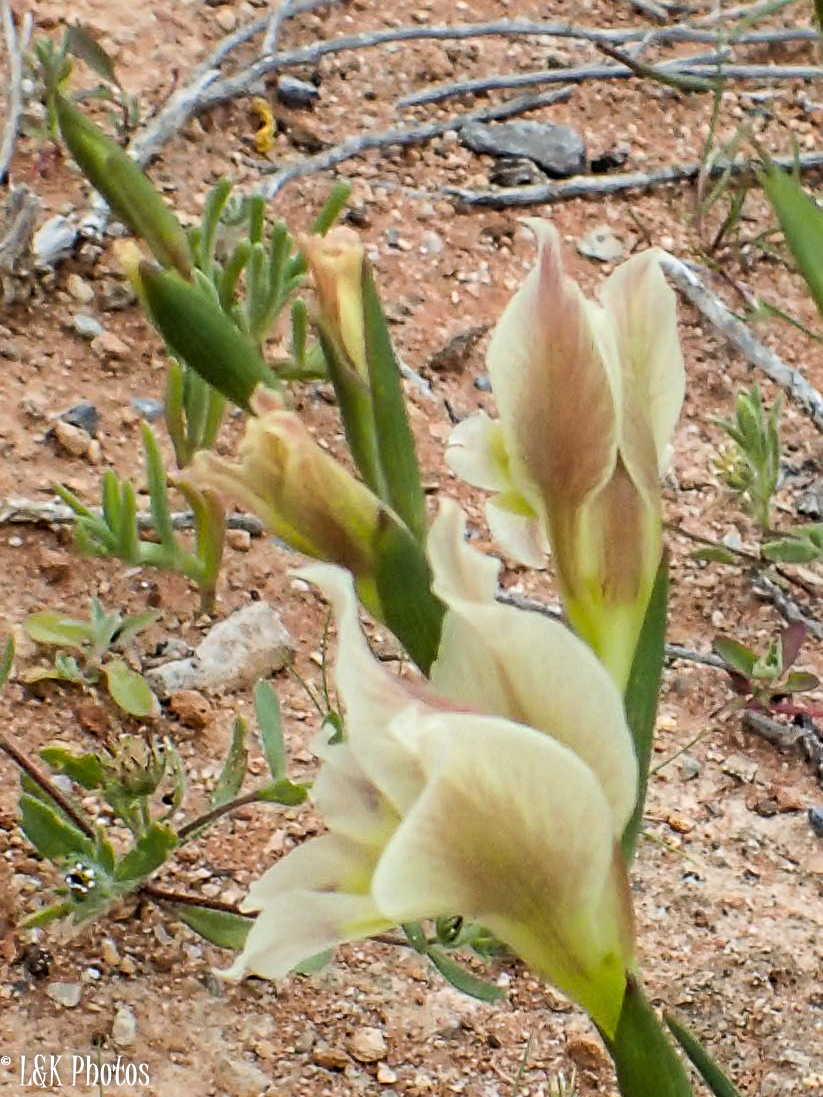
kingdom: Plantae
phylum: Tracheophyta
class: Liliopsida
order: Asparagales
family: Iridaceae
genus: Gladiolus
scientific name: Gladiolus scullyi
